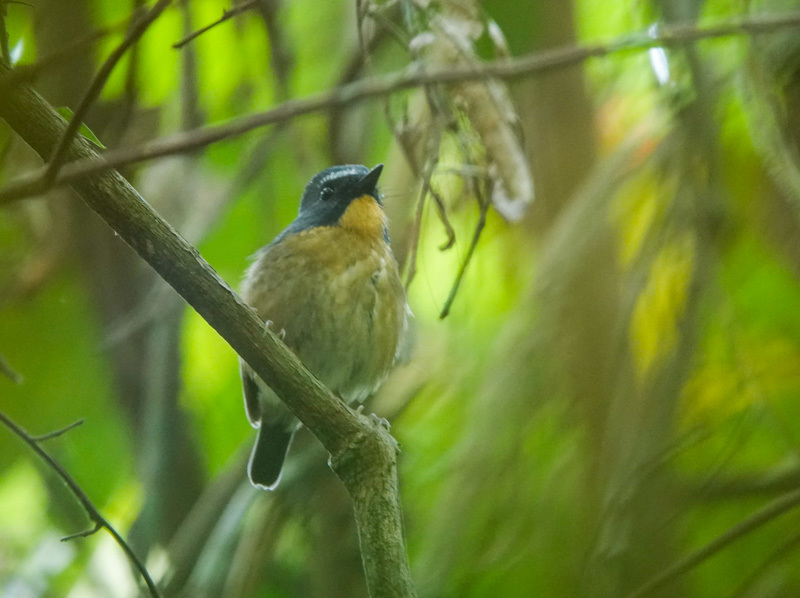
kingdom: Animalia
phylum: Chordata
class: Aves
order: Passeriformes
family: Muscicapidae
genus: Ficedula
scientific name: Ficedula hyperythra
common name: Snowy-browed flycatcher
